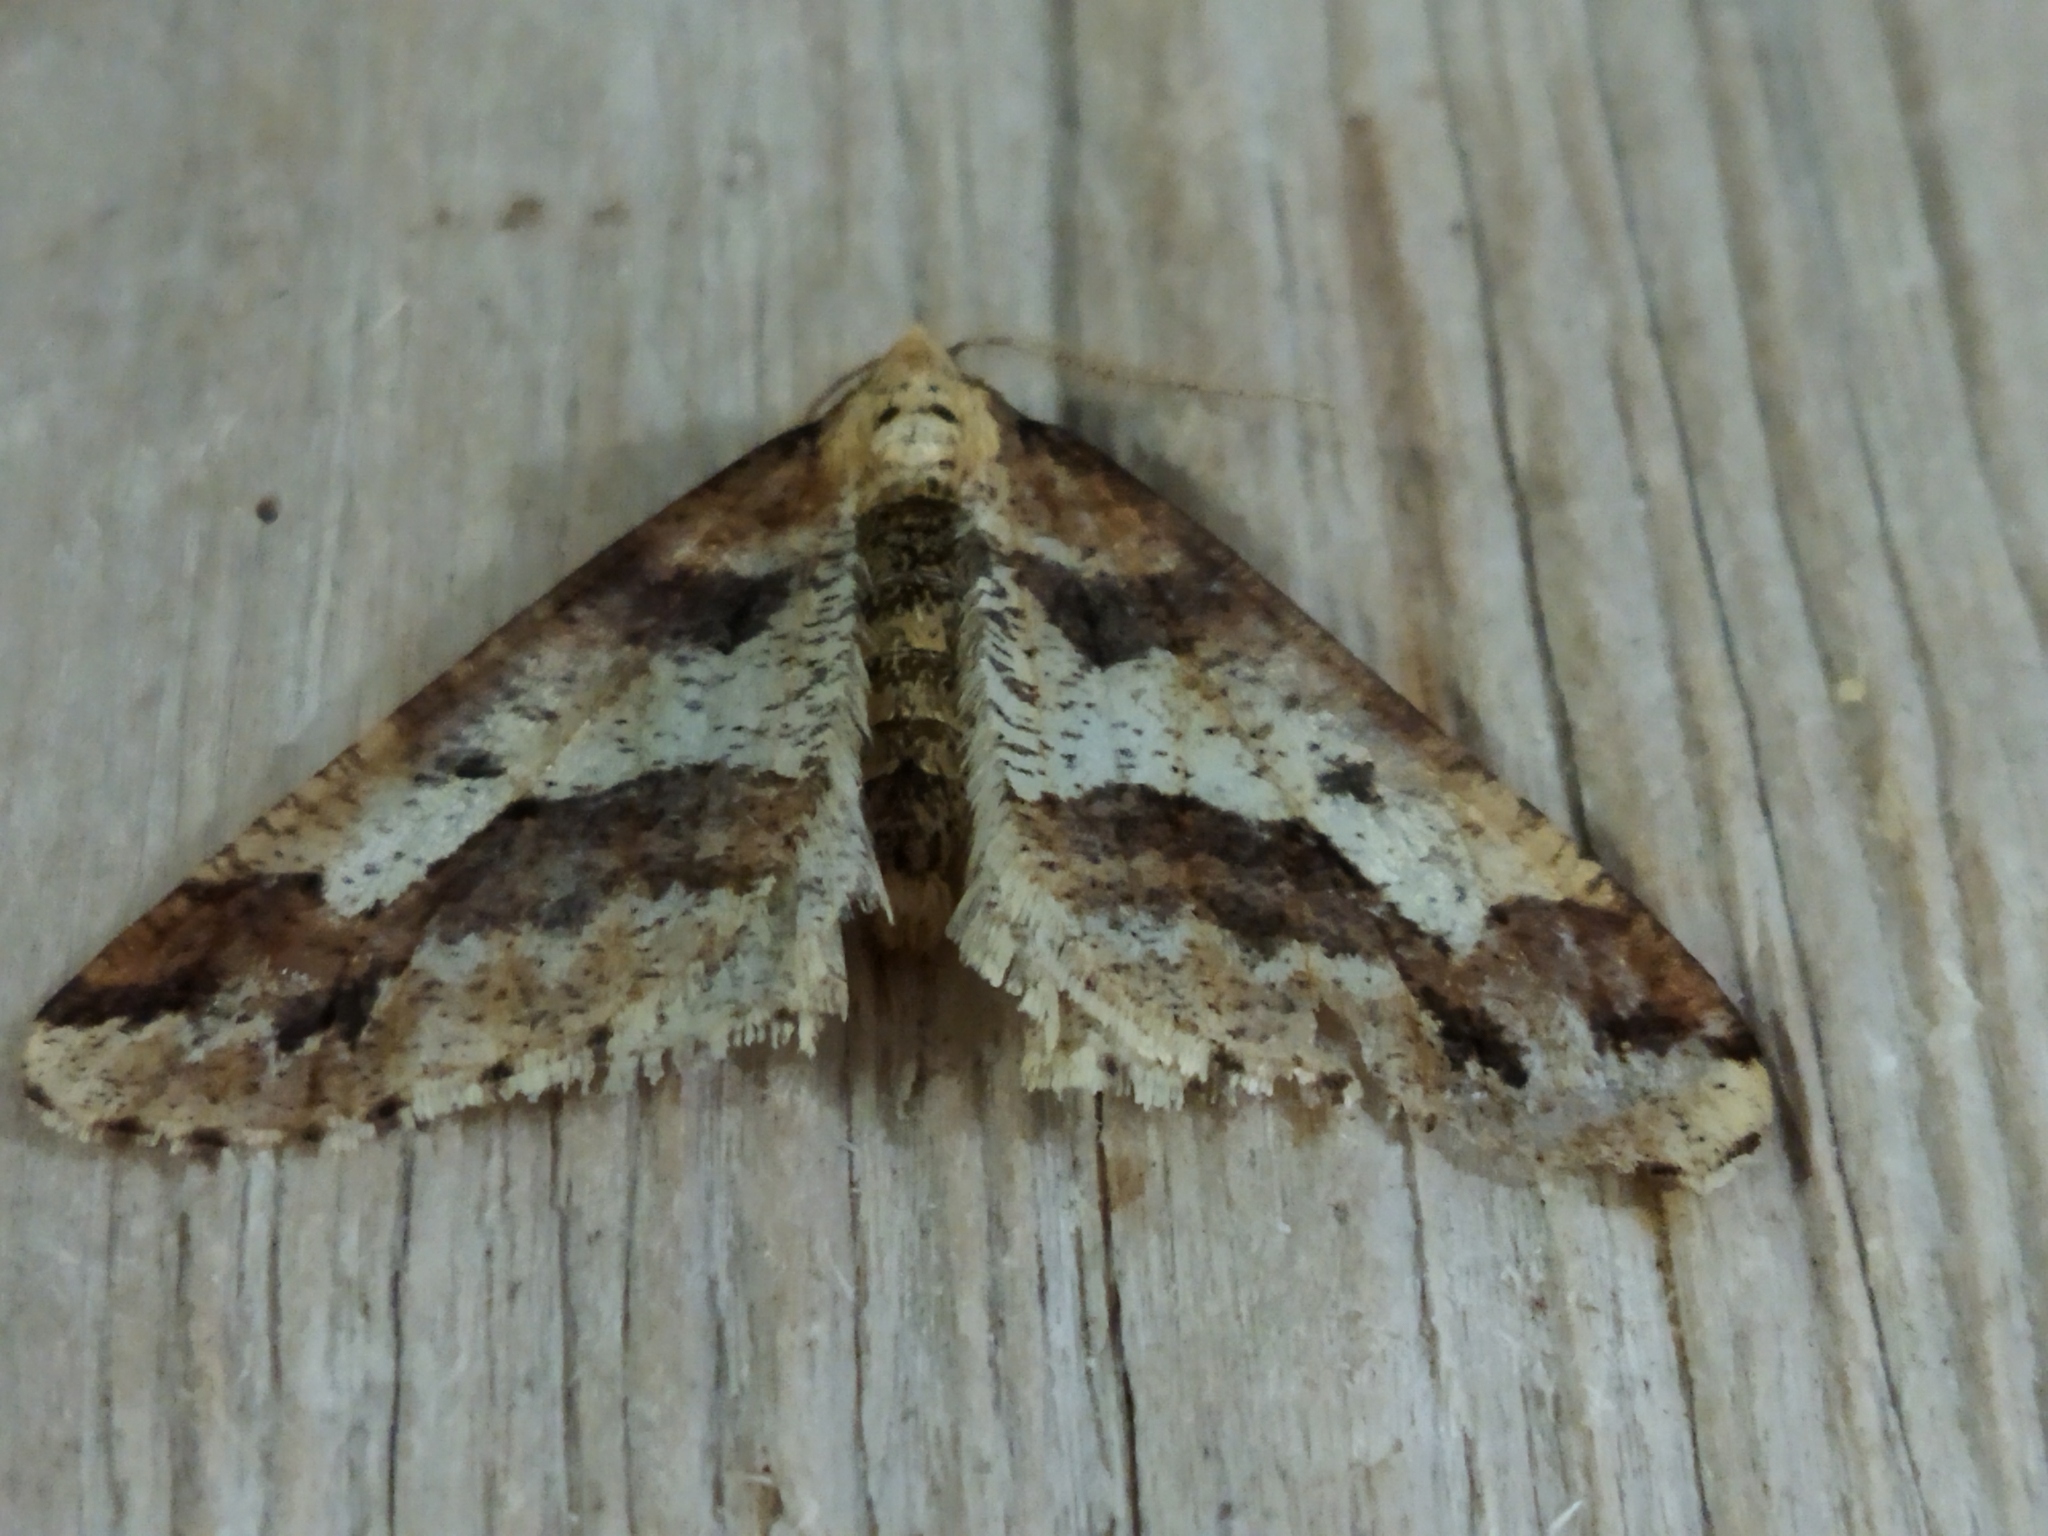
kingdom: Animalia
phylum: Arthropoda
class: Insecta
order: Lepidoptera
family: Geometridae
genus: Erannis
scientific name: Erannis defoliaria
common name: Mottled umber
